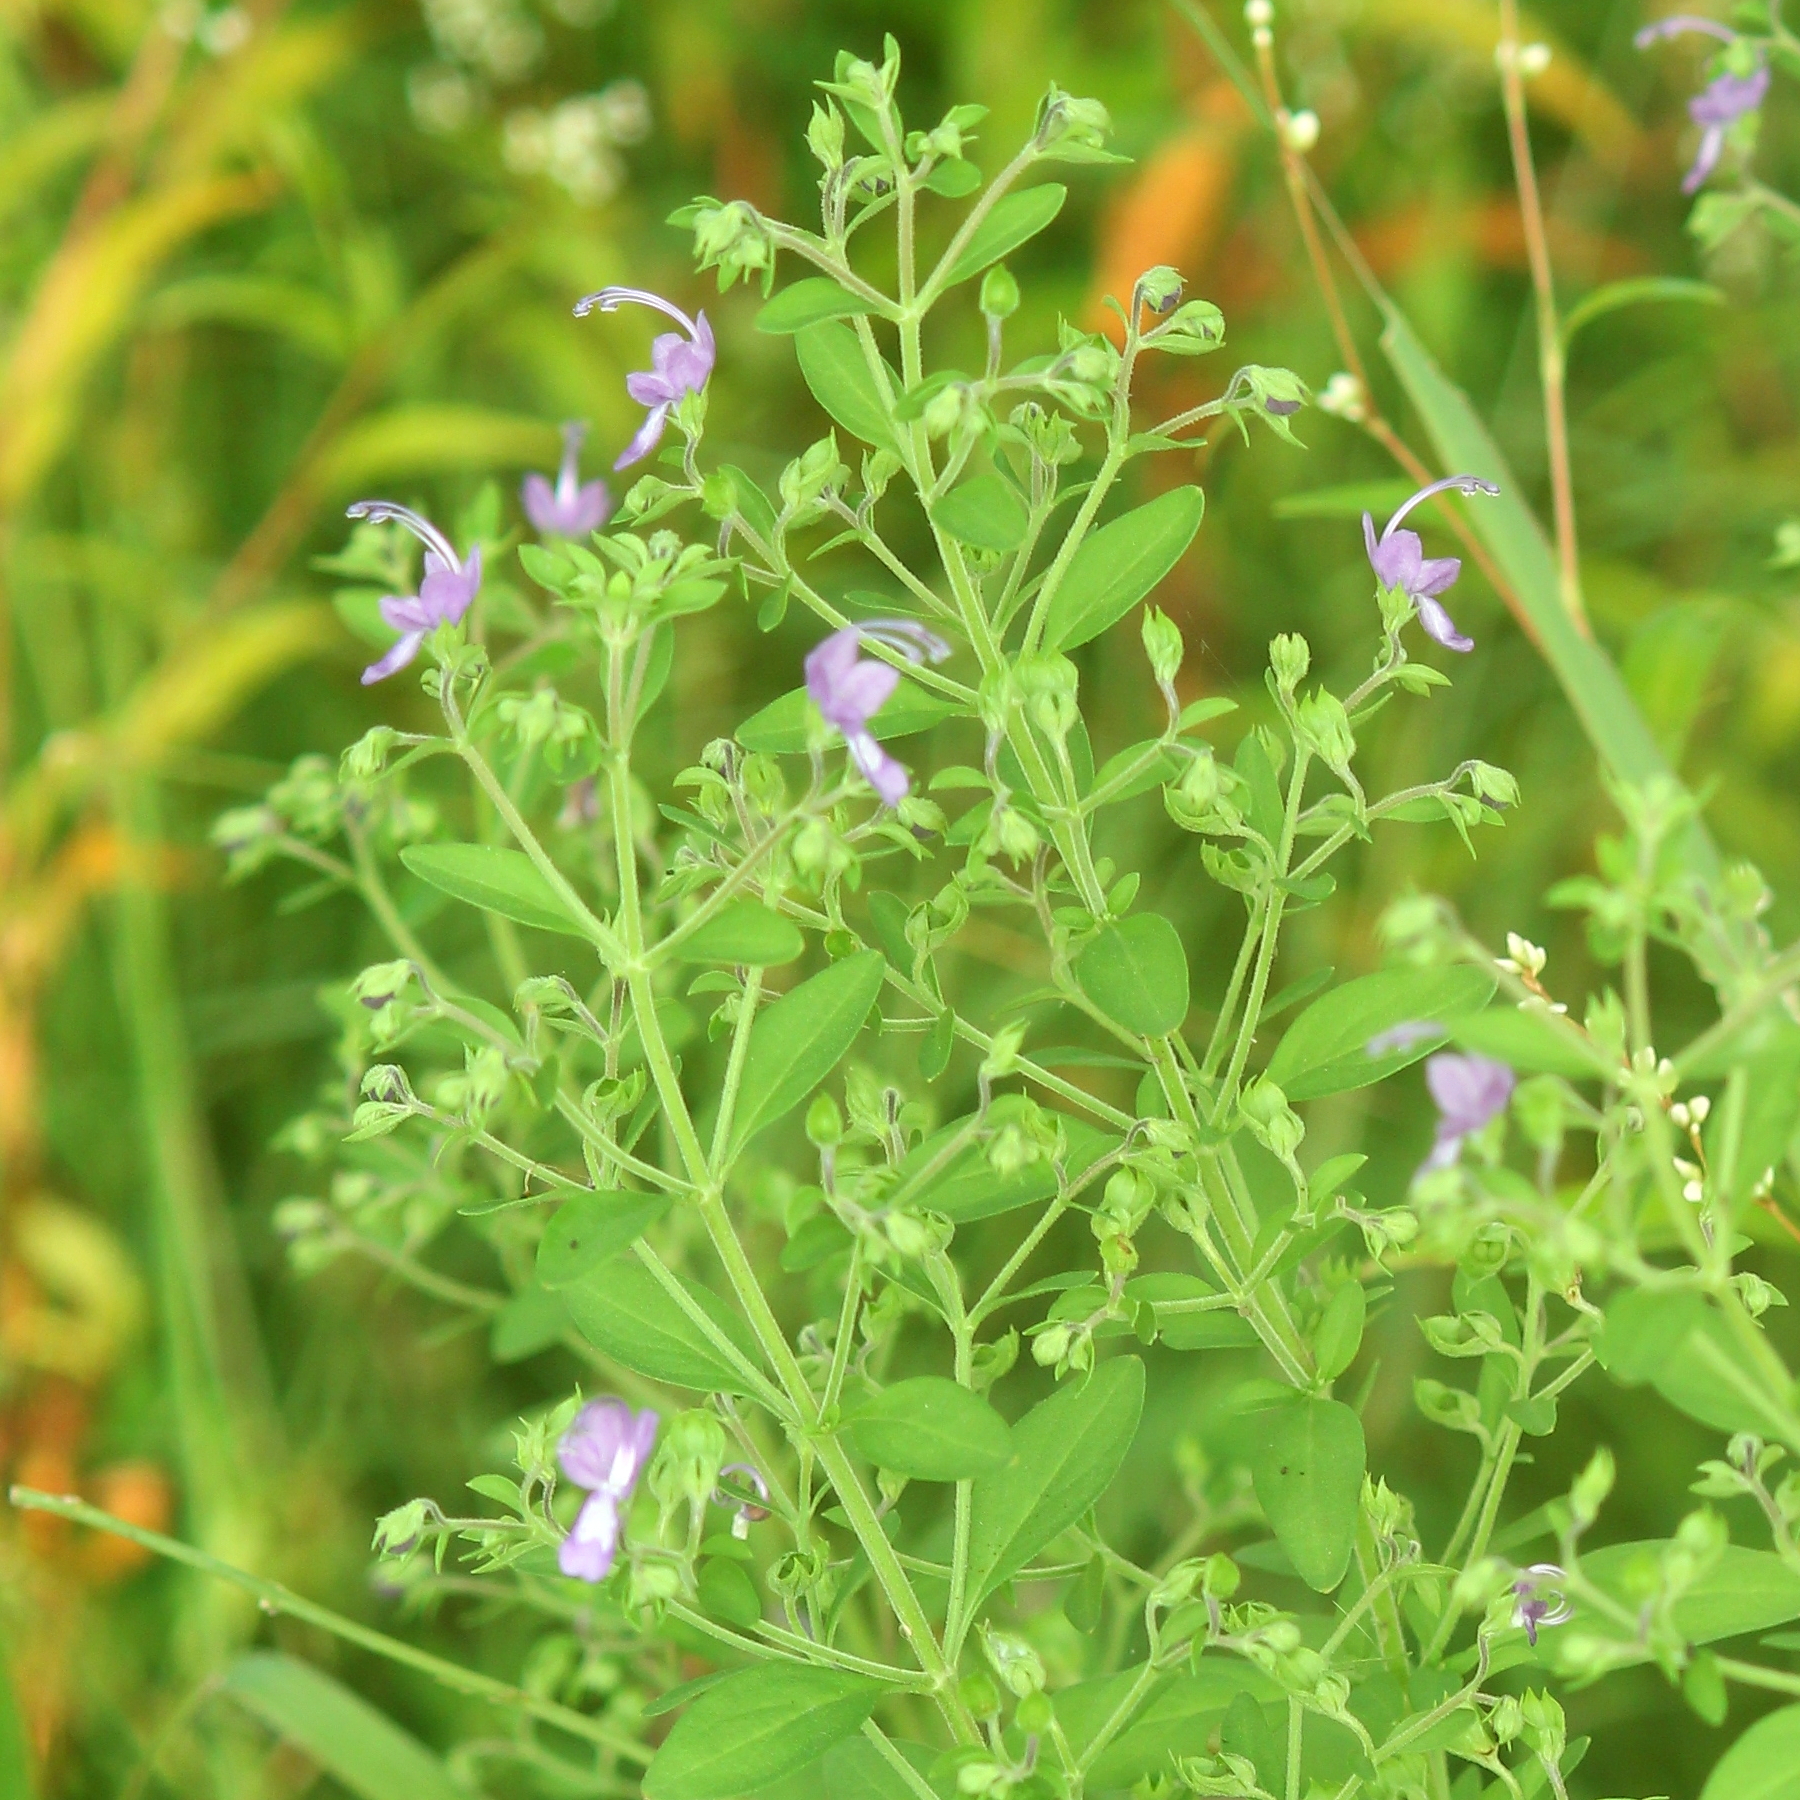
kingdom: Plantae
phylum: Tracheophyta
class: Magnoliopsida
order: Lamiales
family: Lamiaceae
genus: Trichostema
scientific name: Trichostema dichotomum
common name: Bastard pennyroyal
